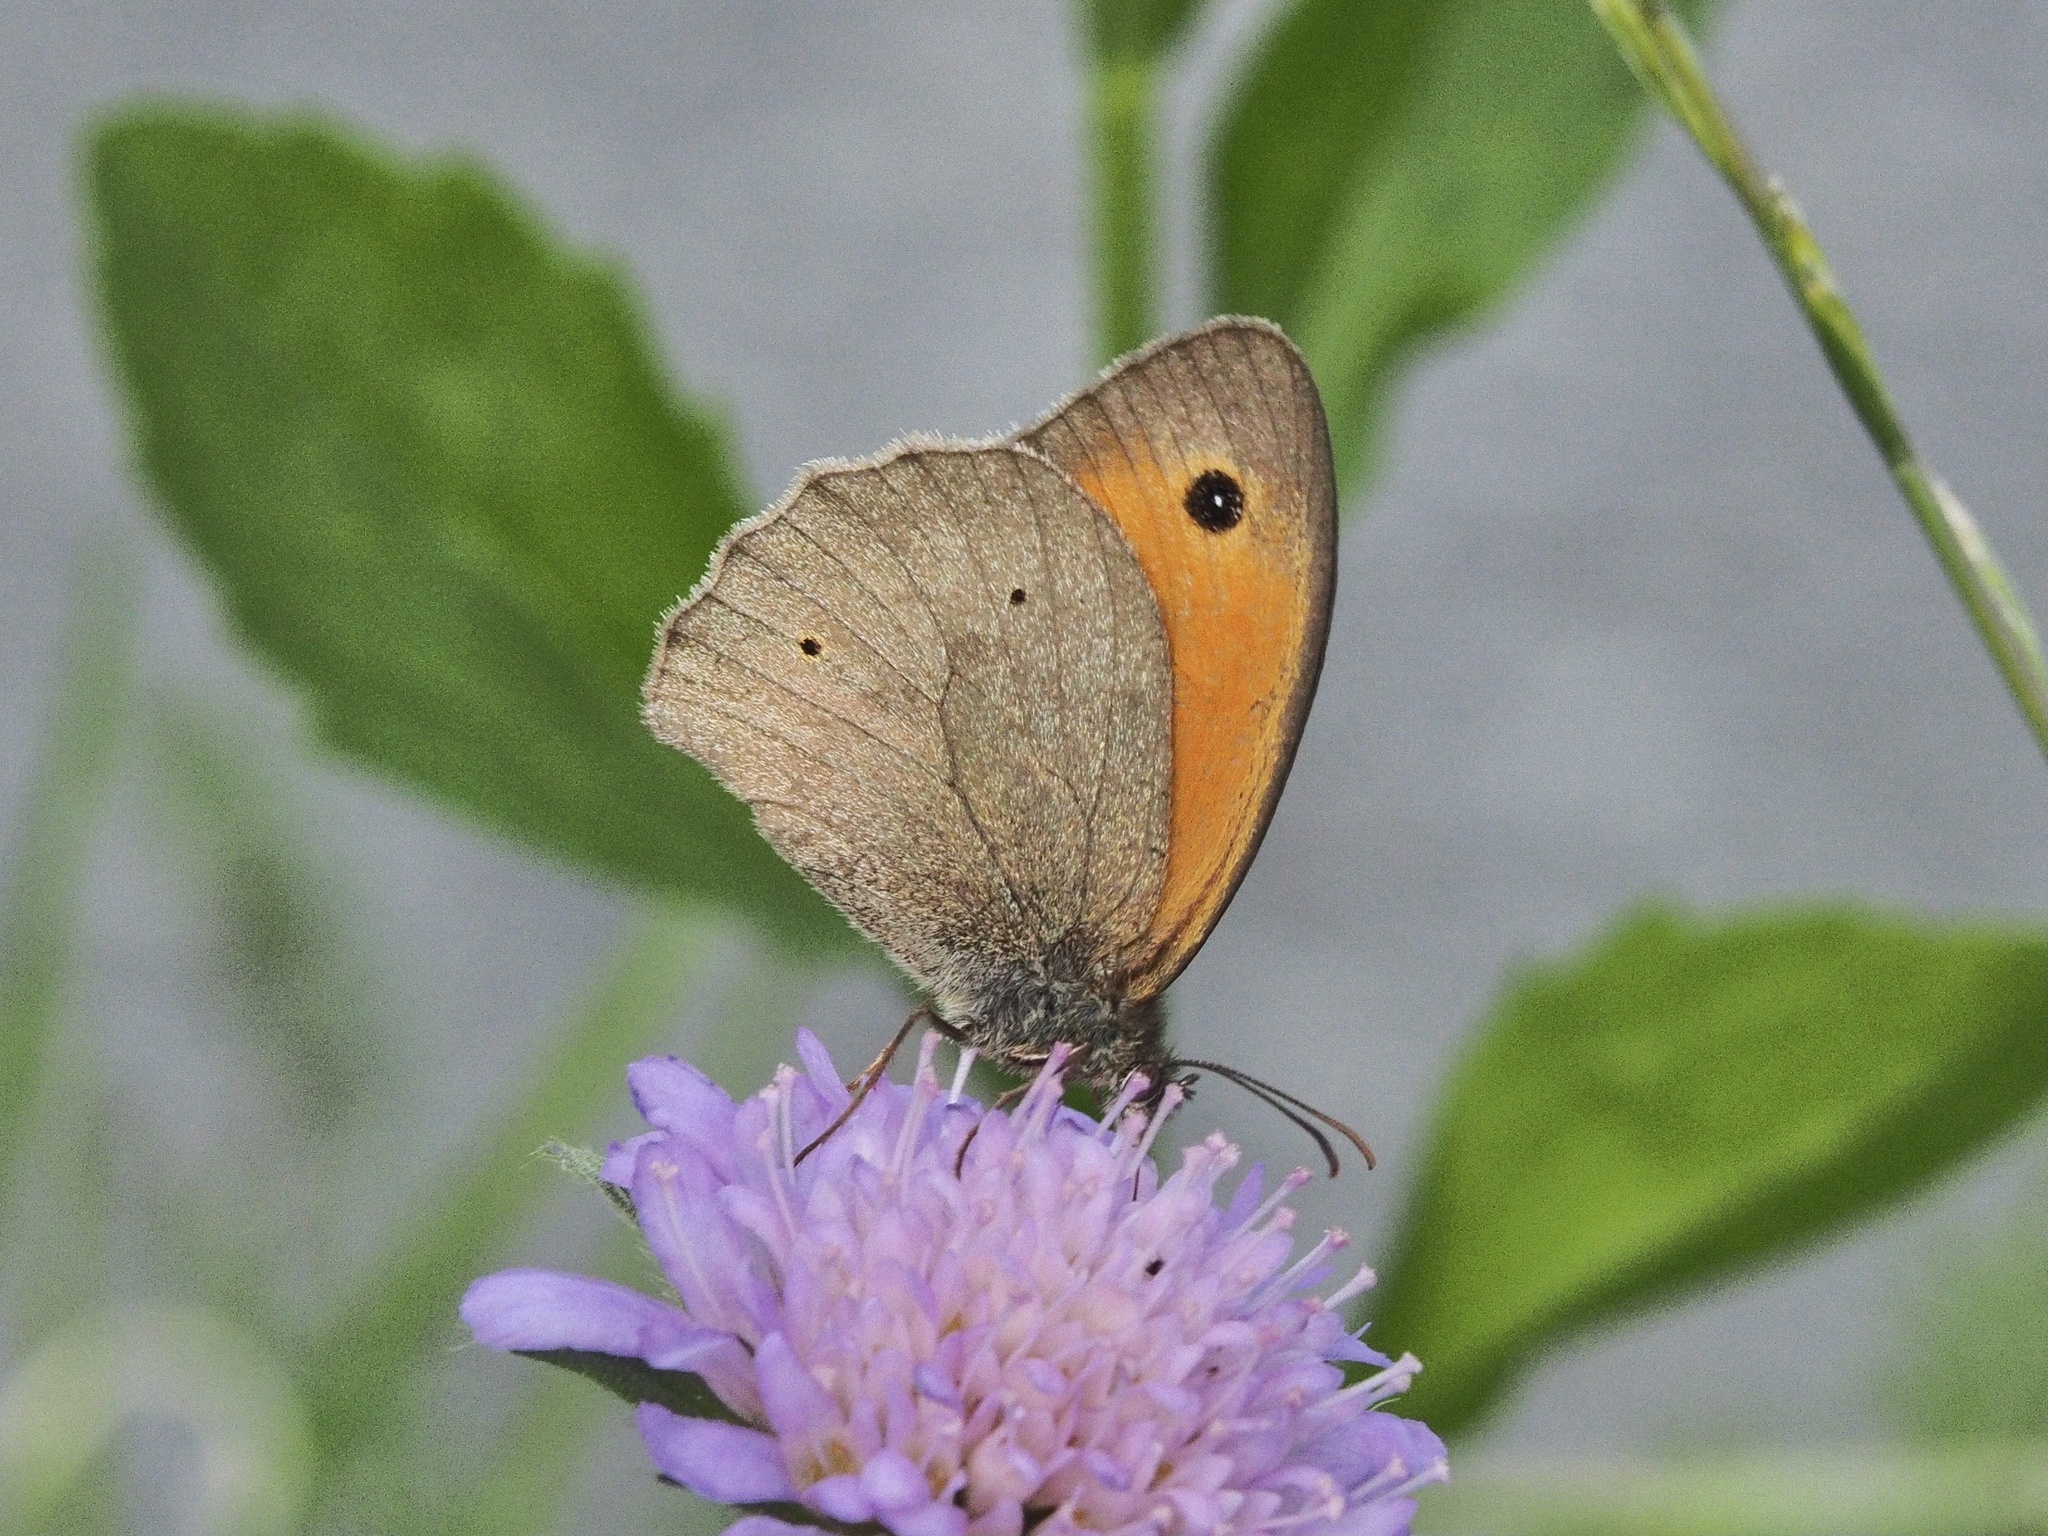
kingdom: Animalia
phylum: Arthropoda
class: Insecta
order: Lepidoptera
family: Nymphalidae
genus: Maniola
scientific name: Maniola jurtina
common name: Meadow brown
